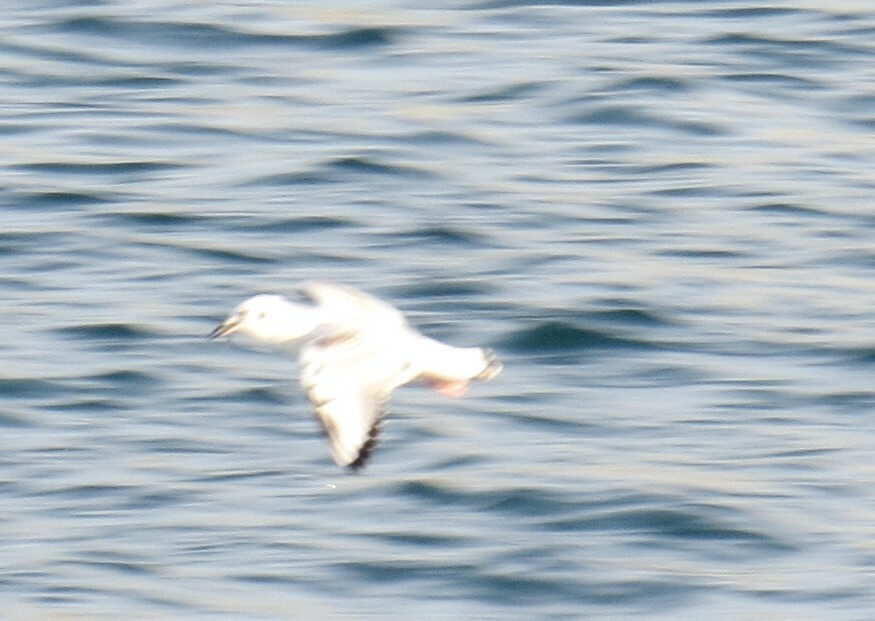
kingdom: Animalia
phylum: Chordata
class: Aves
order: Charadriiformes
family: Laridae
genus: Chroicocephalus
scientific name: Chroicocephalus philadelphia
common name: Bonaparte's gull
